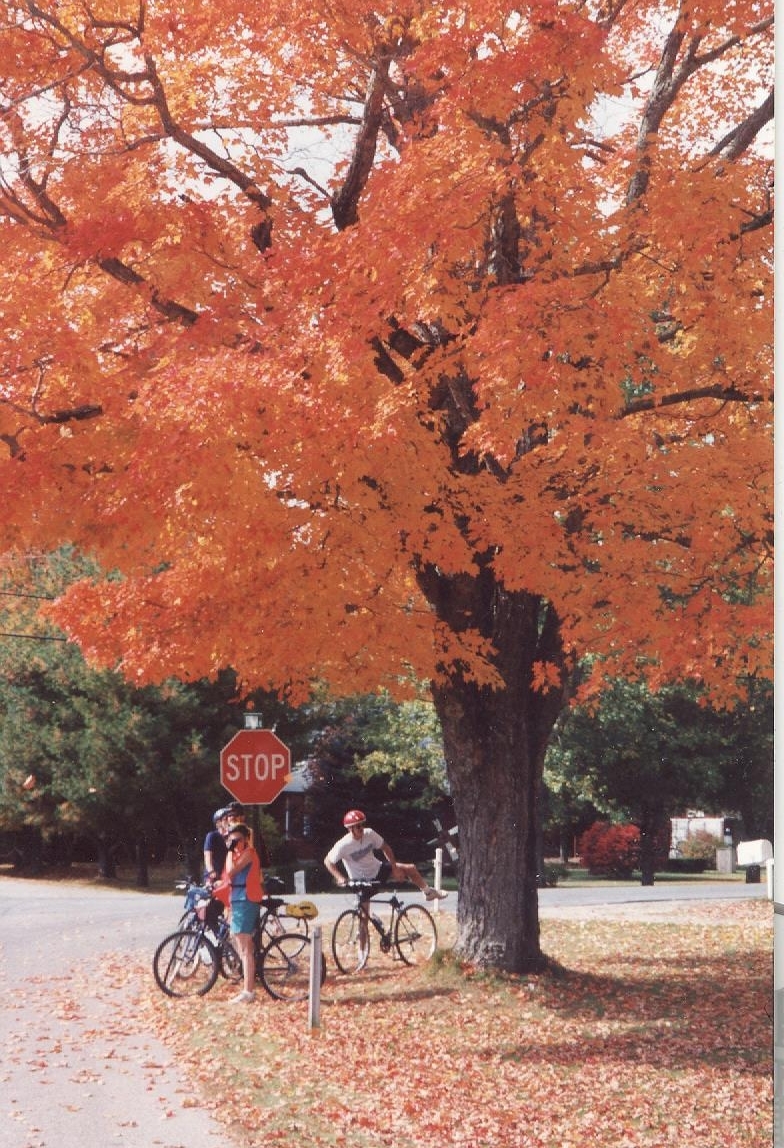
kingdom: Plantae
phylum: Tracheophyta
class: Magnoliopsida
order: Sapindales
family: Sapindaceae
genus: Acer
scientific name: Acer saccharum
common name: Sugar maple
